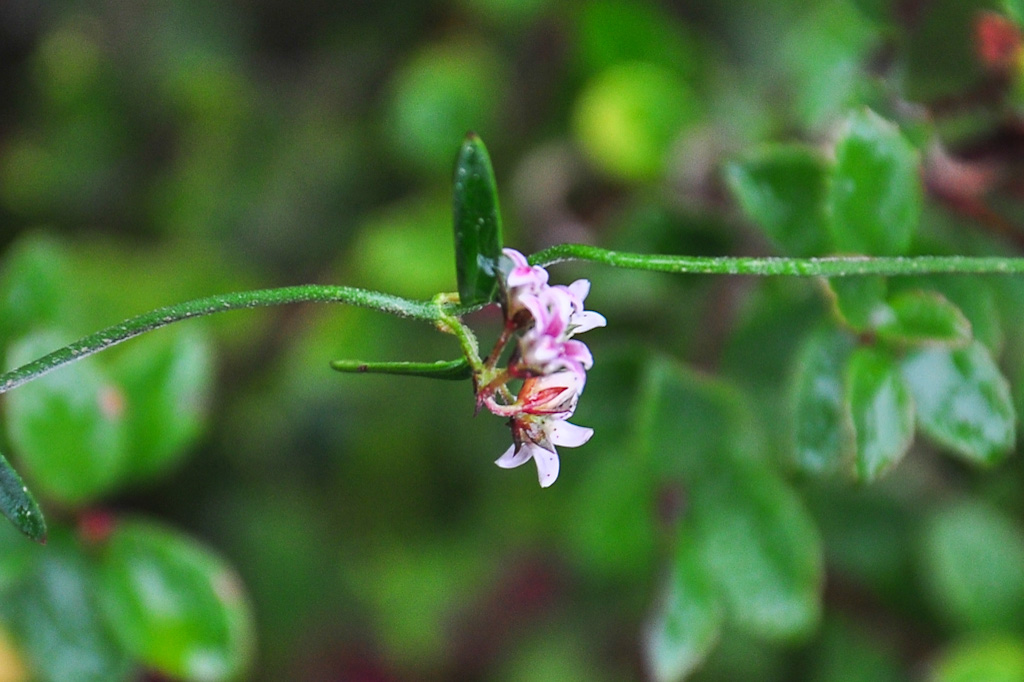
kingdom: Plantae
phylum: Tracheophyta
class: Magnoliopsida
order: Gentianales
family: Apocynaceae
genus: Astephanus
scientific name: Astephanus triflorus
